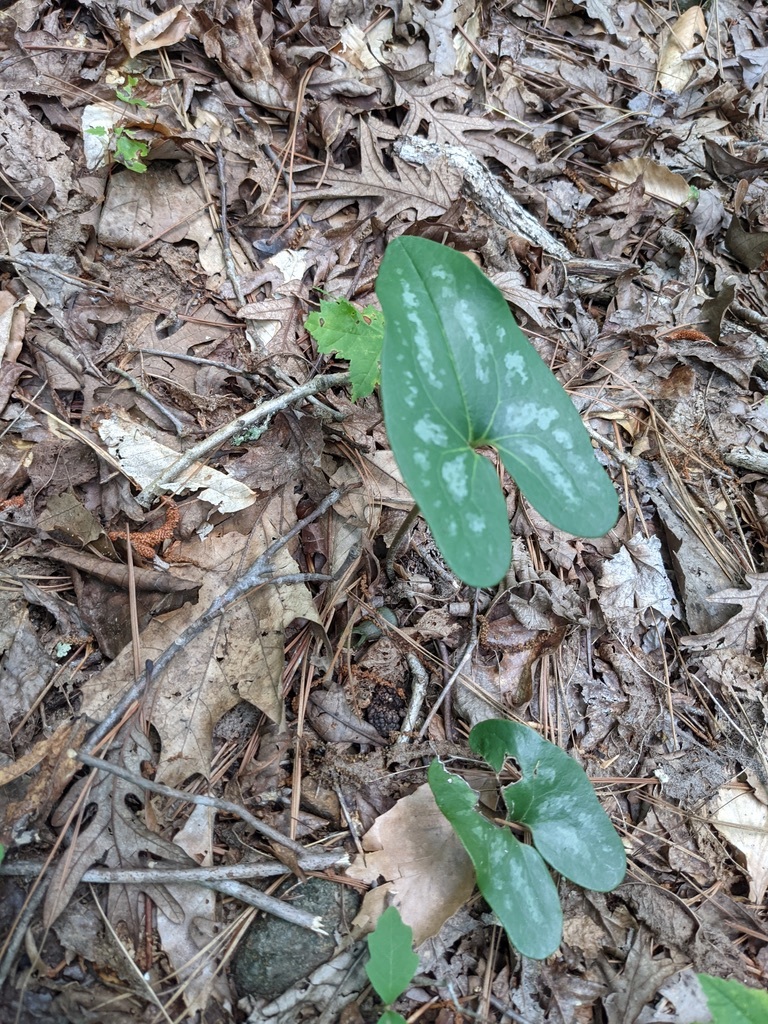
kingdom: Plantae
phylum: Tracheophyta
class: Magnoliopsida
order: Piperales
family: Aristolochiaceae
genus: Hexastylis
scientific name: Hexastylis arifolia
